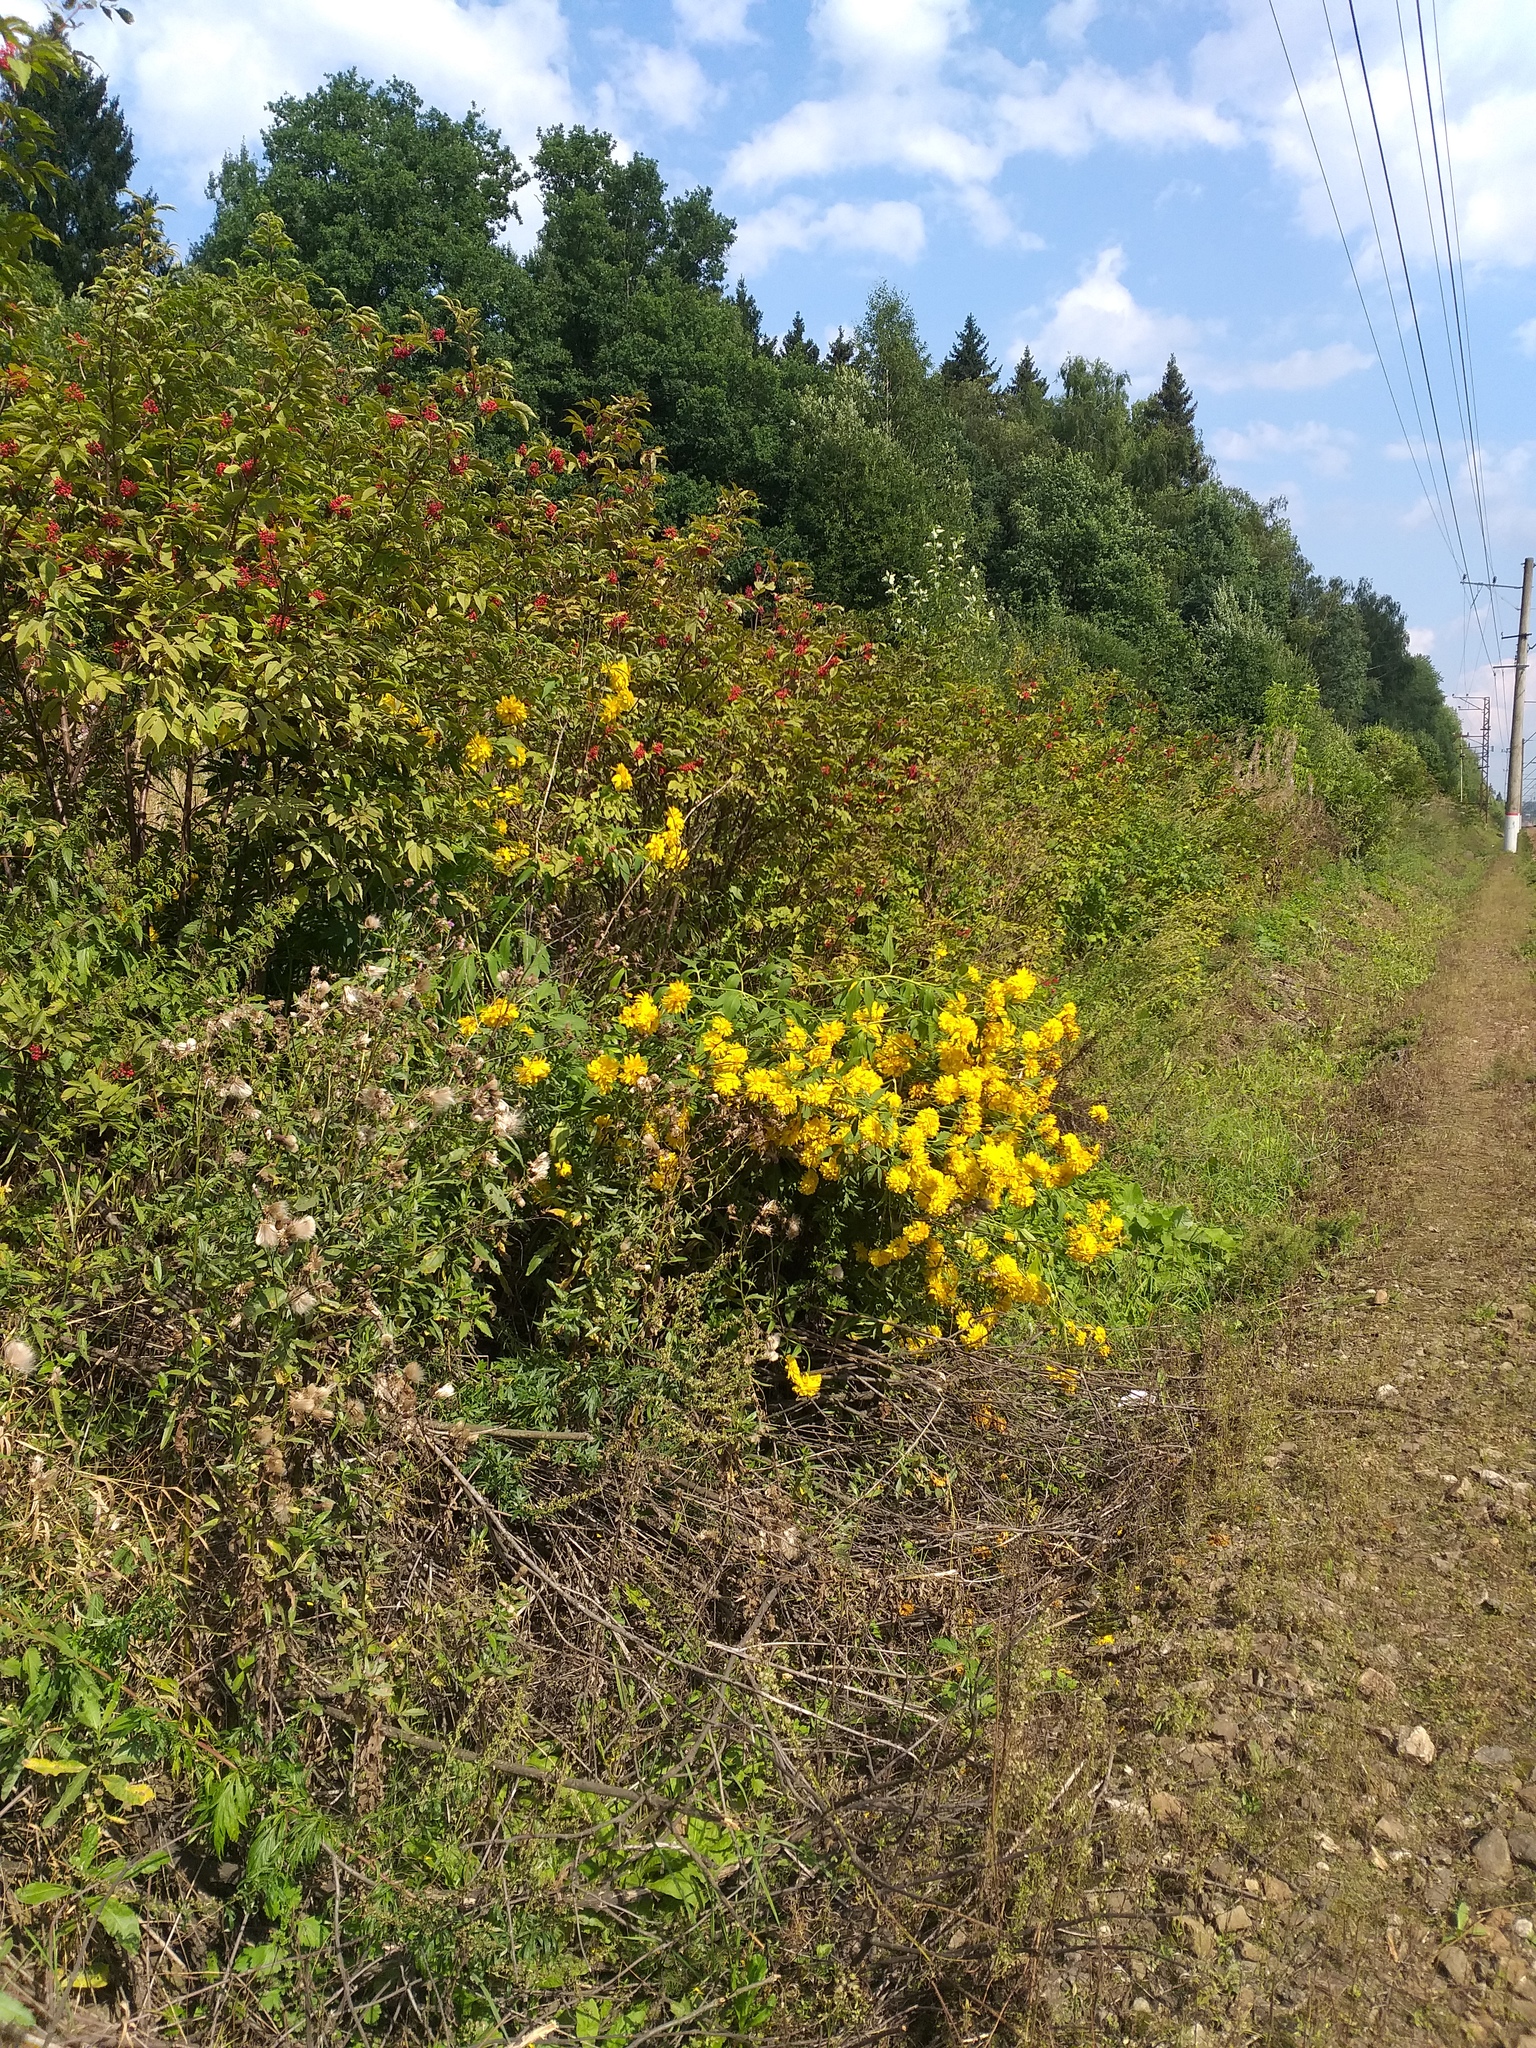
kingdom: Plantae
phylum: Tracheophyta
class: Magnoliopsida
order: Asterales
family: Asteraceae
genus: Rudbeckia
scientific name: Rudbeckia laciniata
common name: Coneflower
